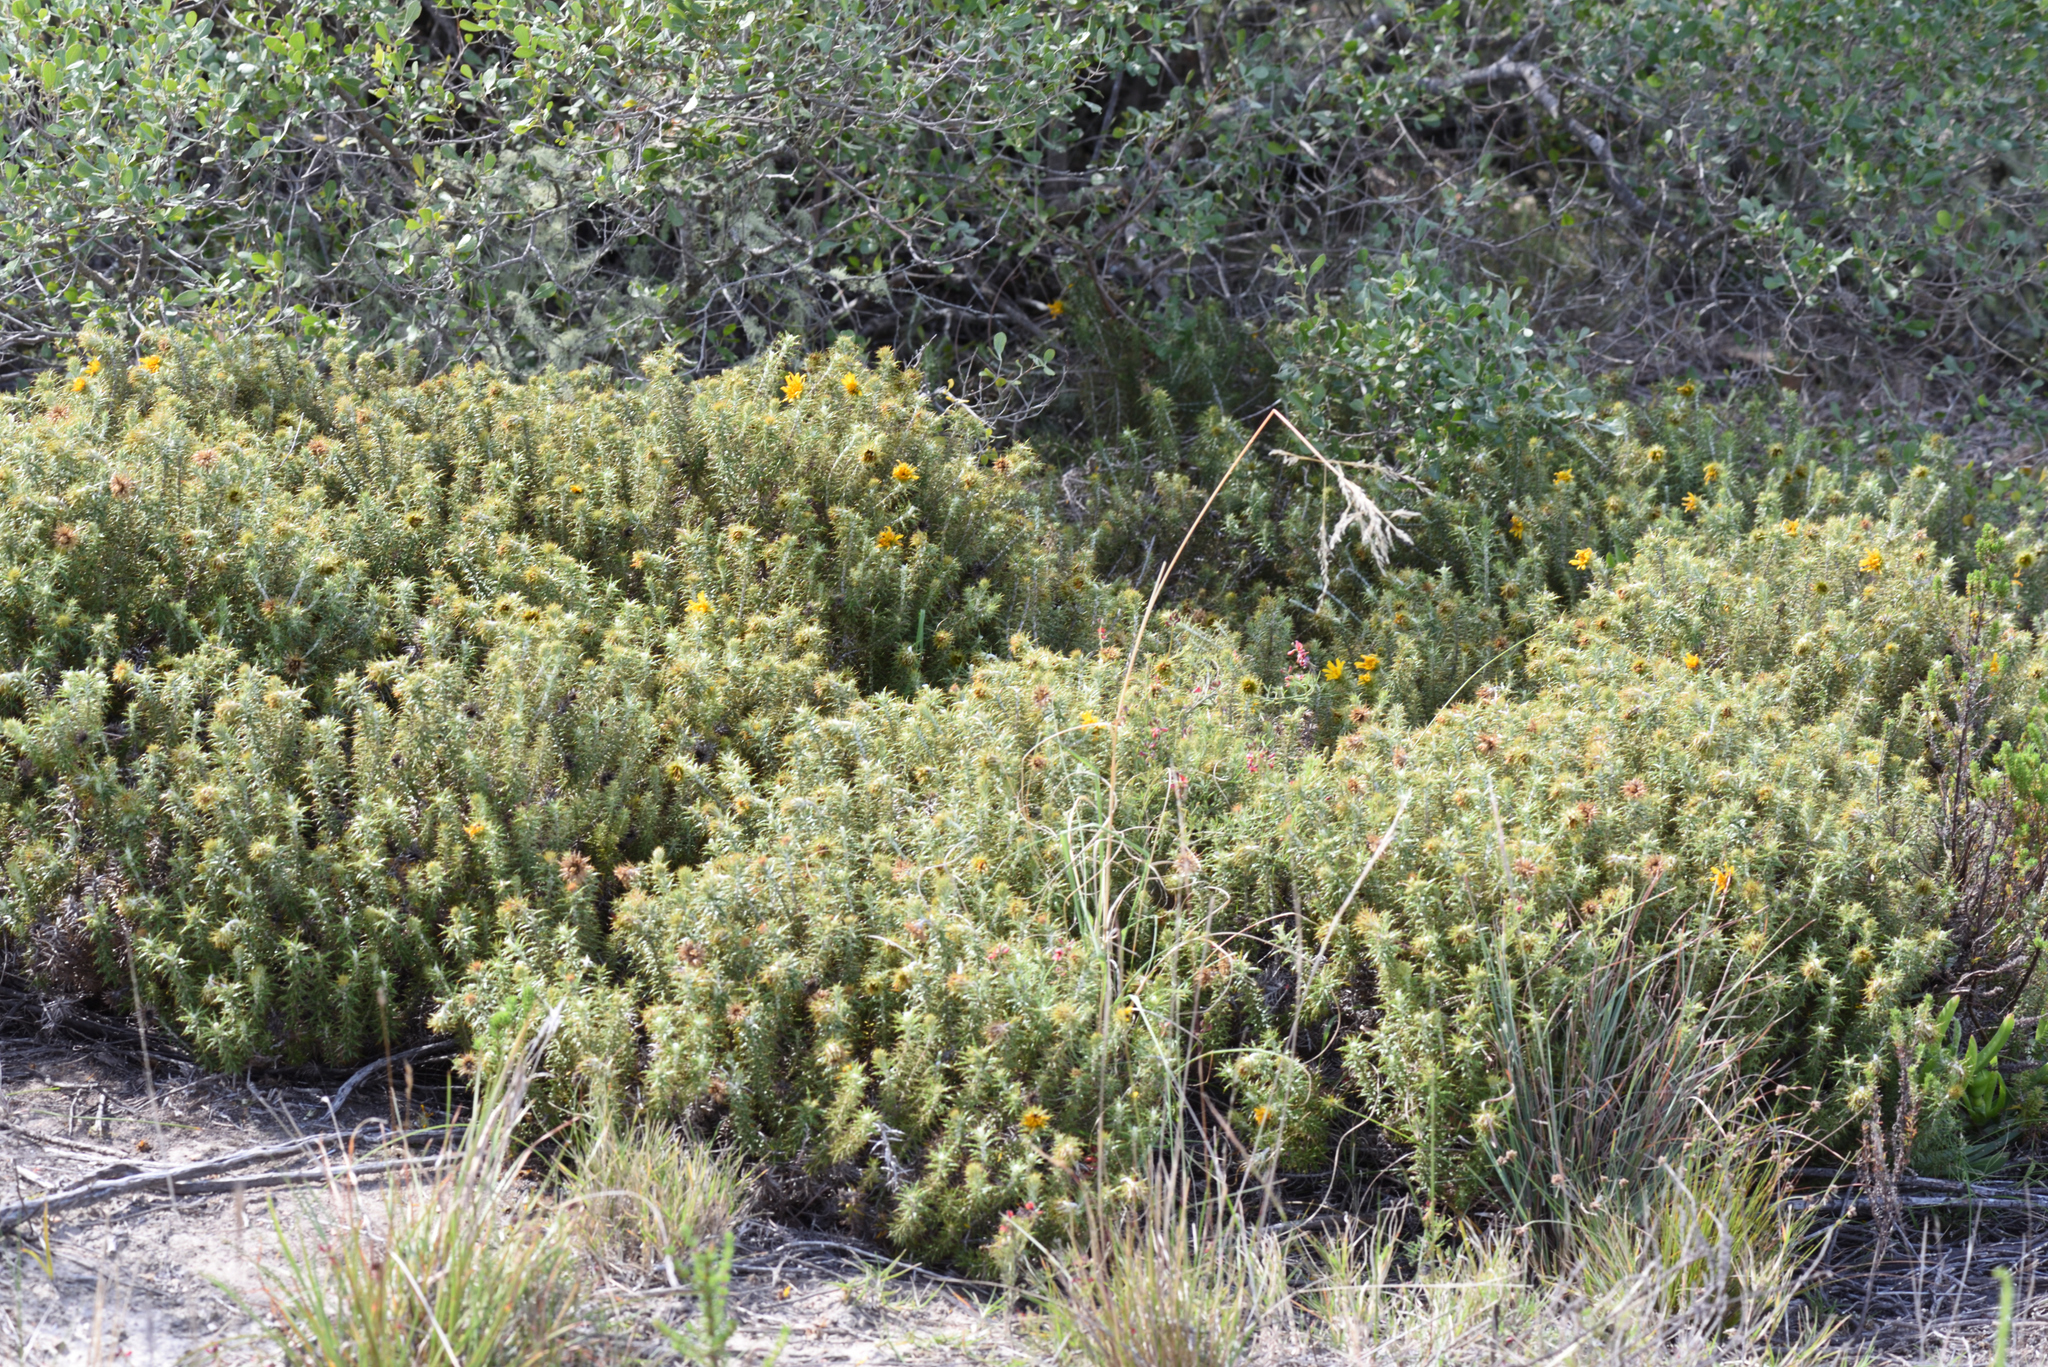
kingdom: Plantae
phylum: Tracheophyta
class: Magnoliopsida
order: Asterales
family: Asteraceae
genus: Cullumia
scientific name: Cullumia setosa
